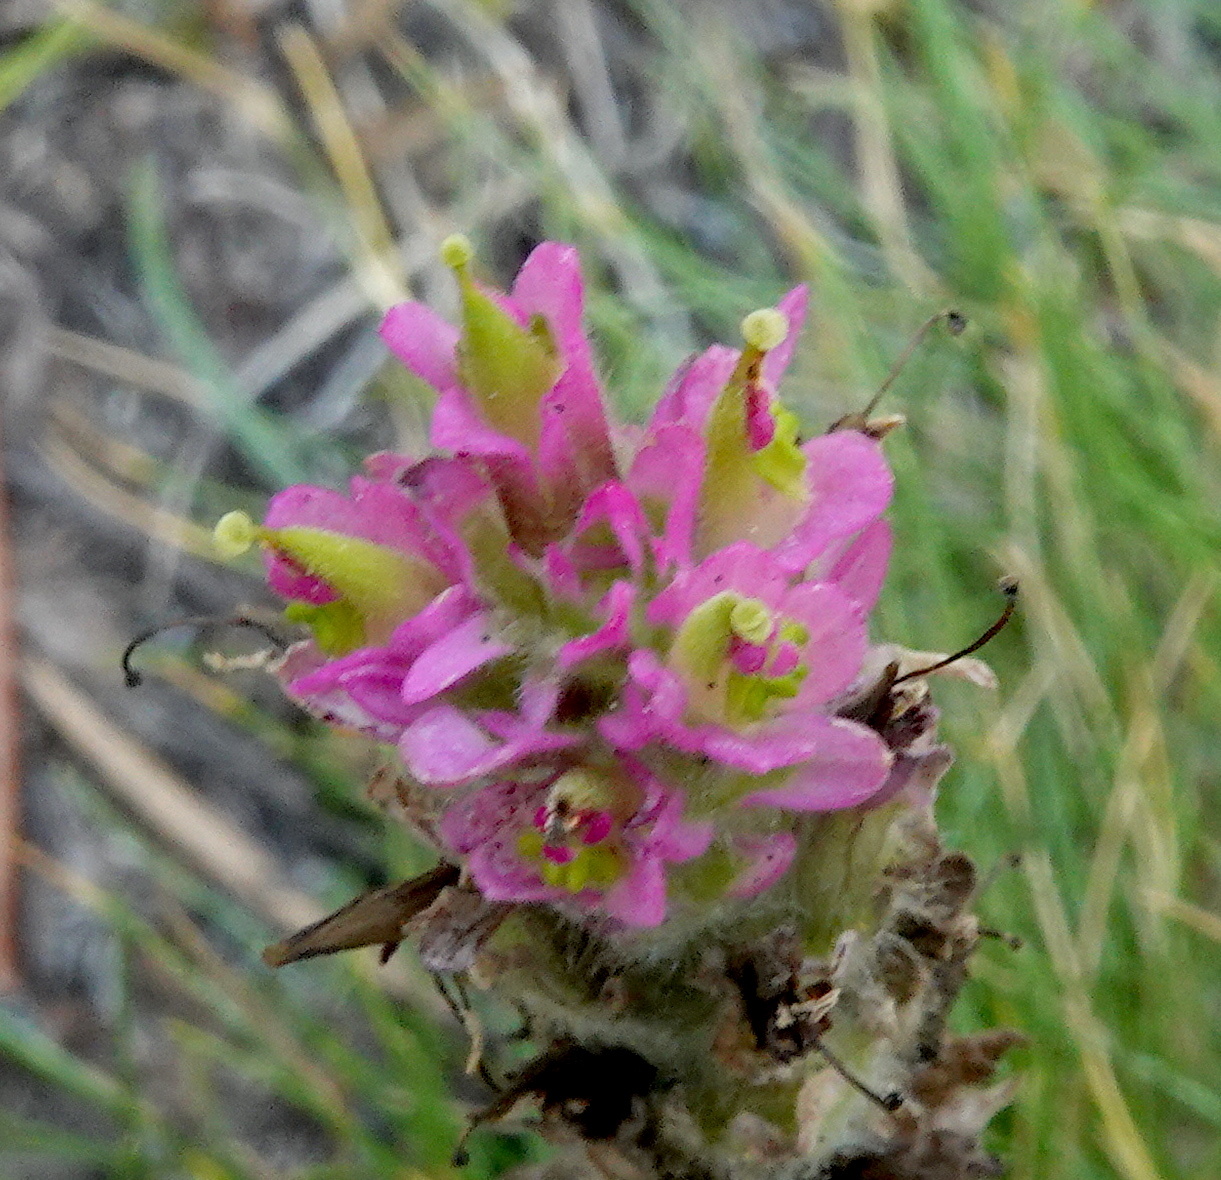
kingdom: Plantae
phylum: Tracheophyta
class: Magnoliopsida
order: Lamiales
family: Orobanchaceae
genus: Castilleja
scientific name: Castilleja lemmonii
